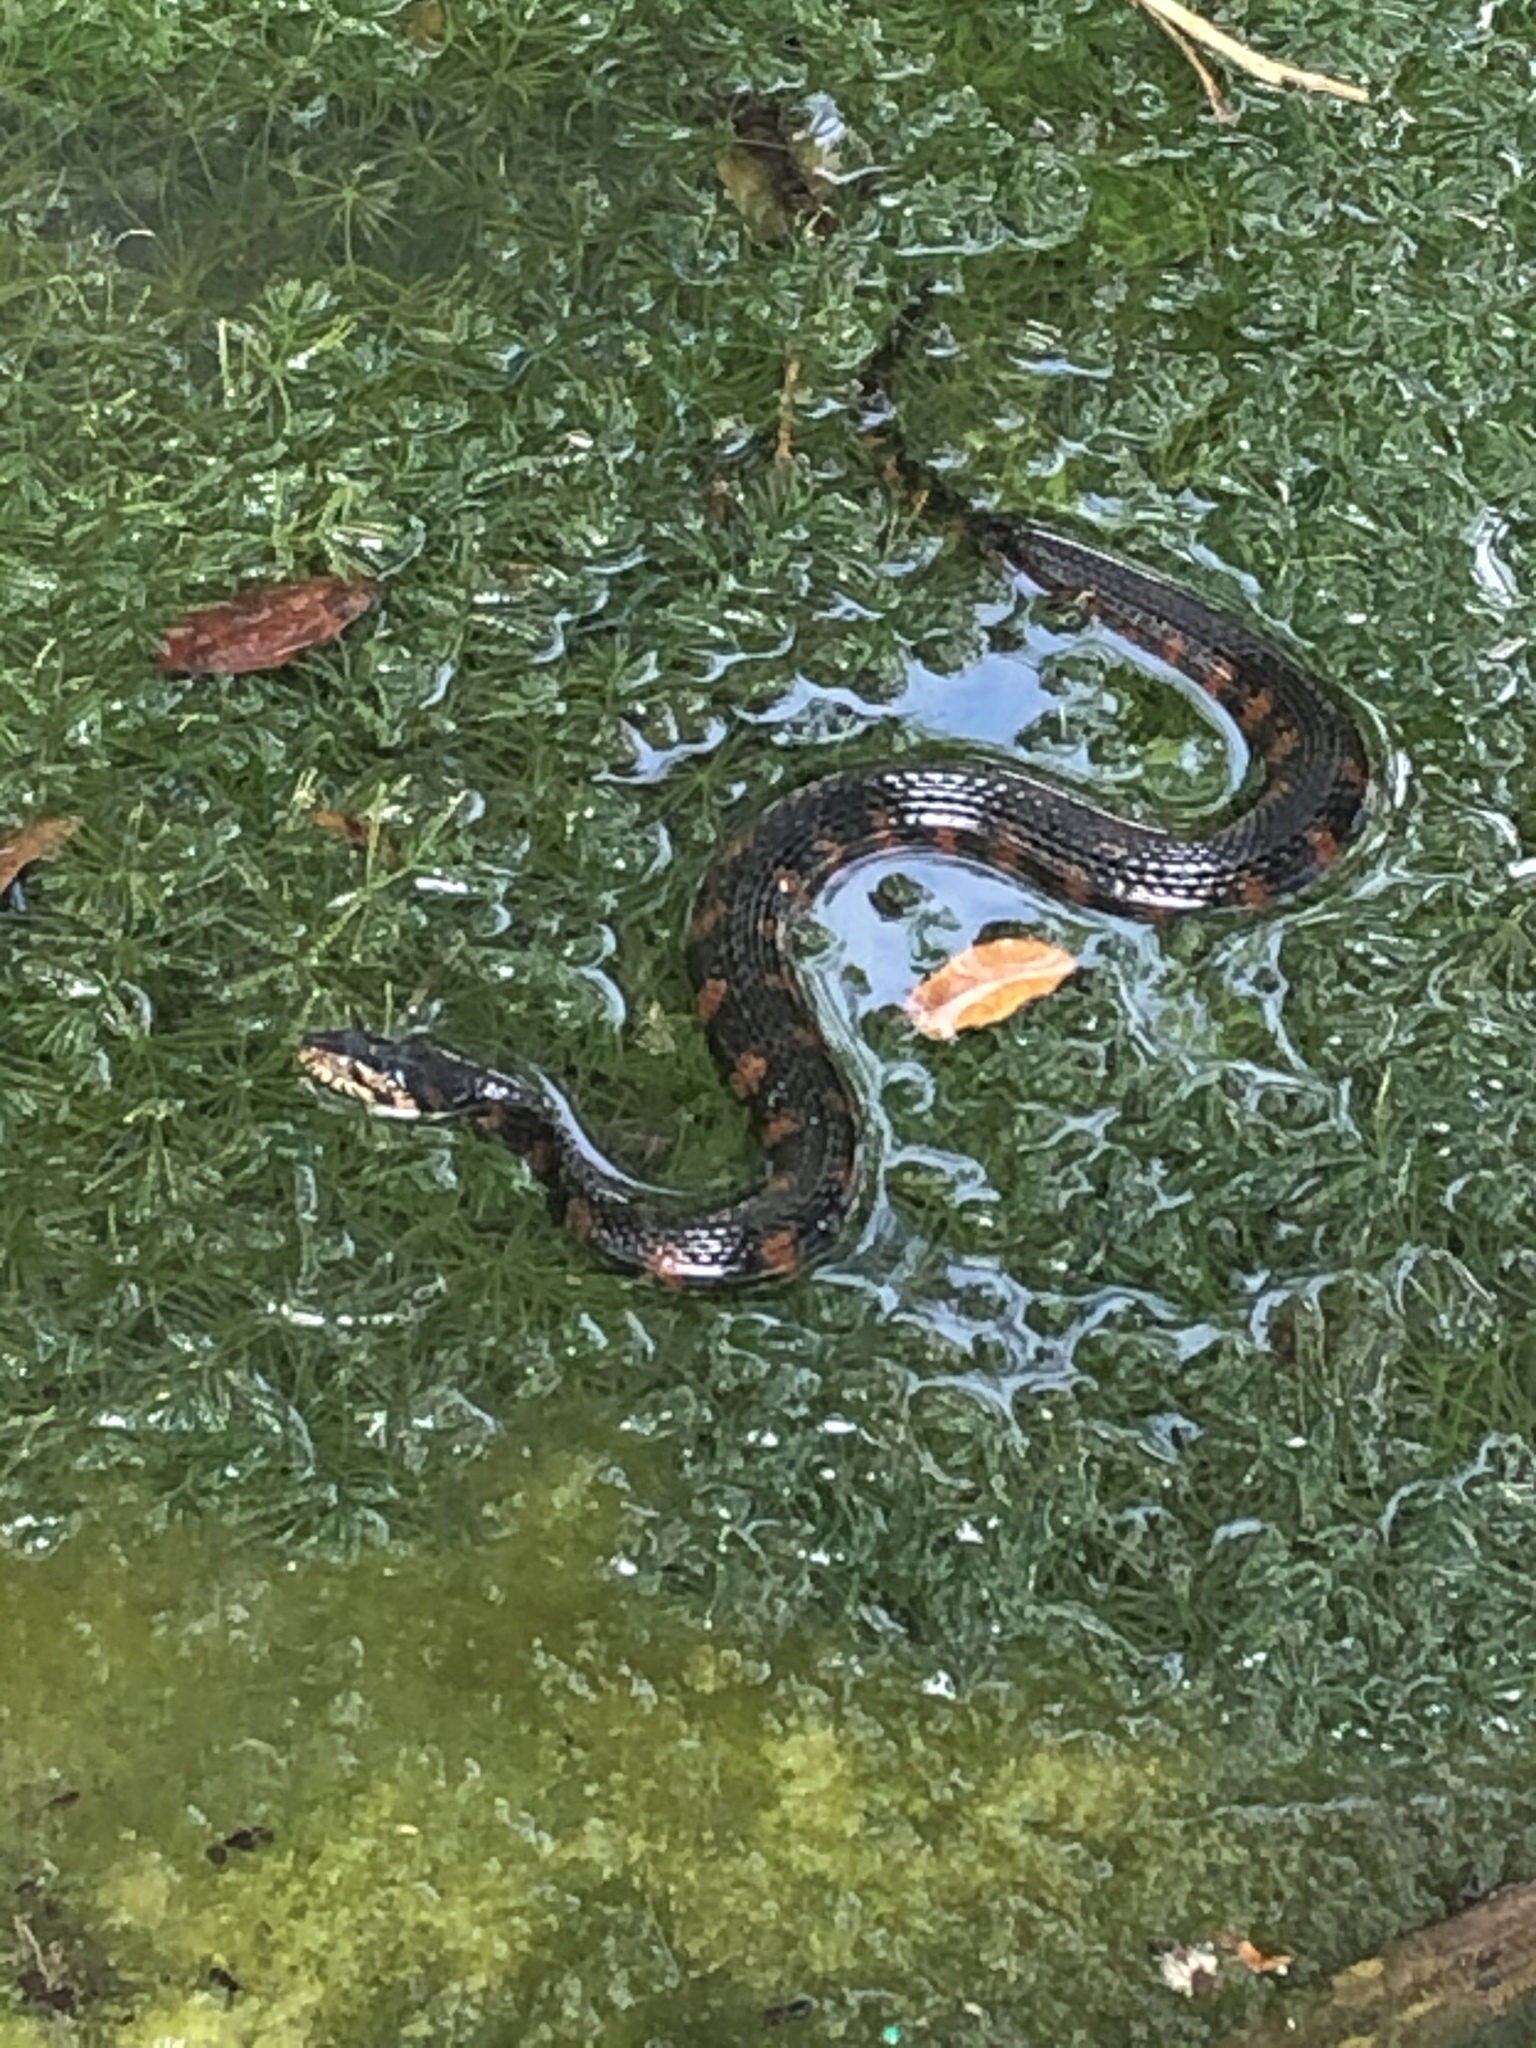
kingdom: Animalia
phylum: Chordata
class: Squamata
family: Colubridae
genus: Nerodia
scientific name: Nerodia fasciata
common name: Southern water snake
